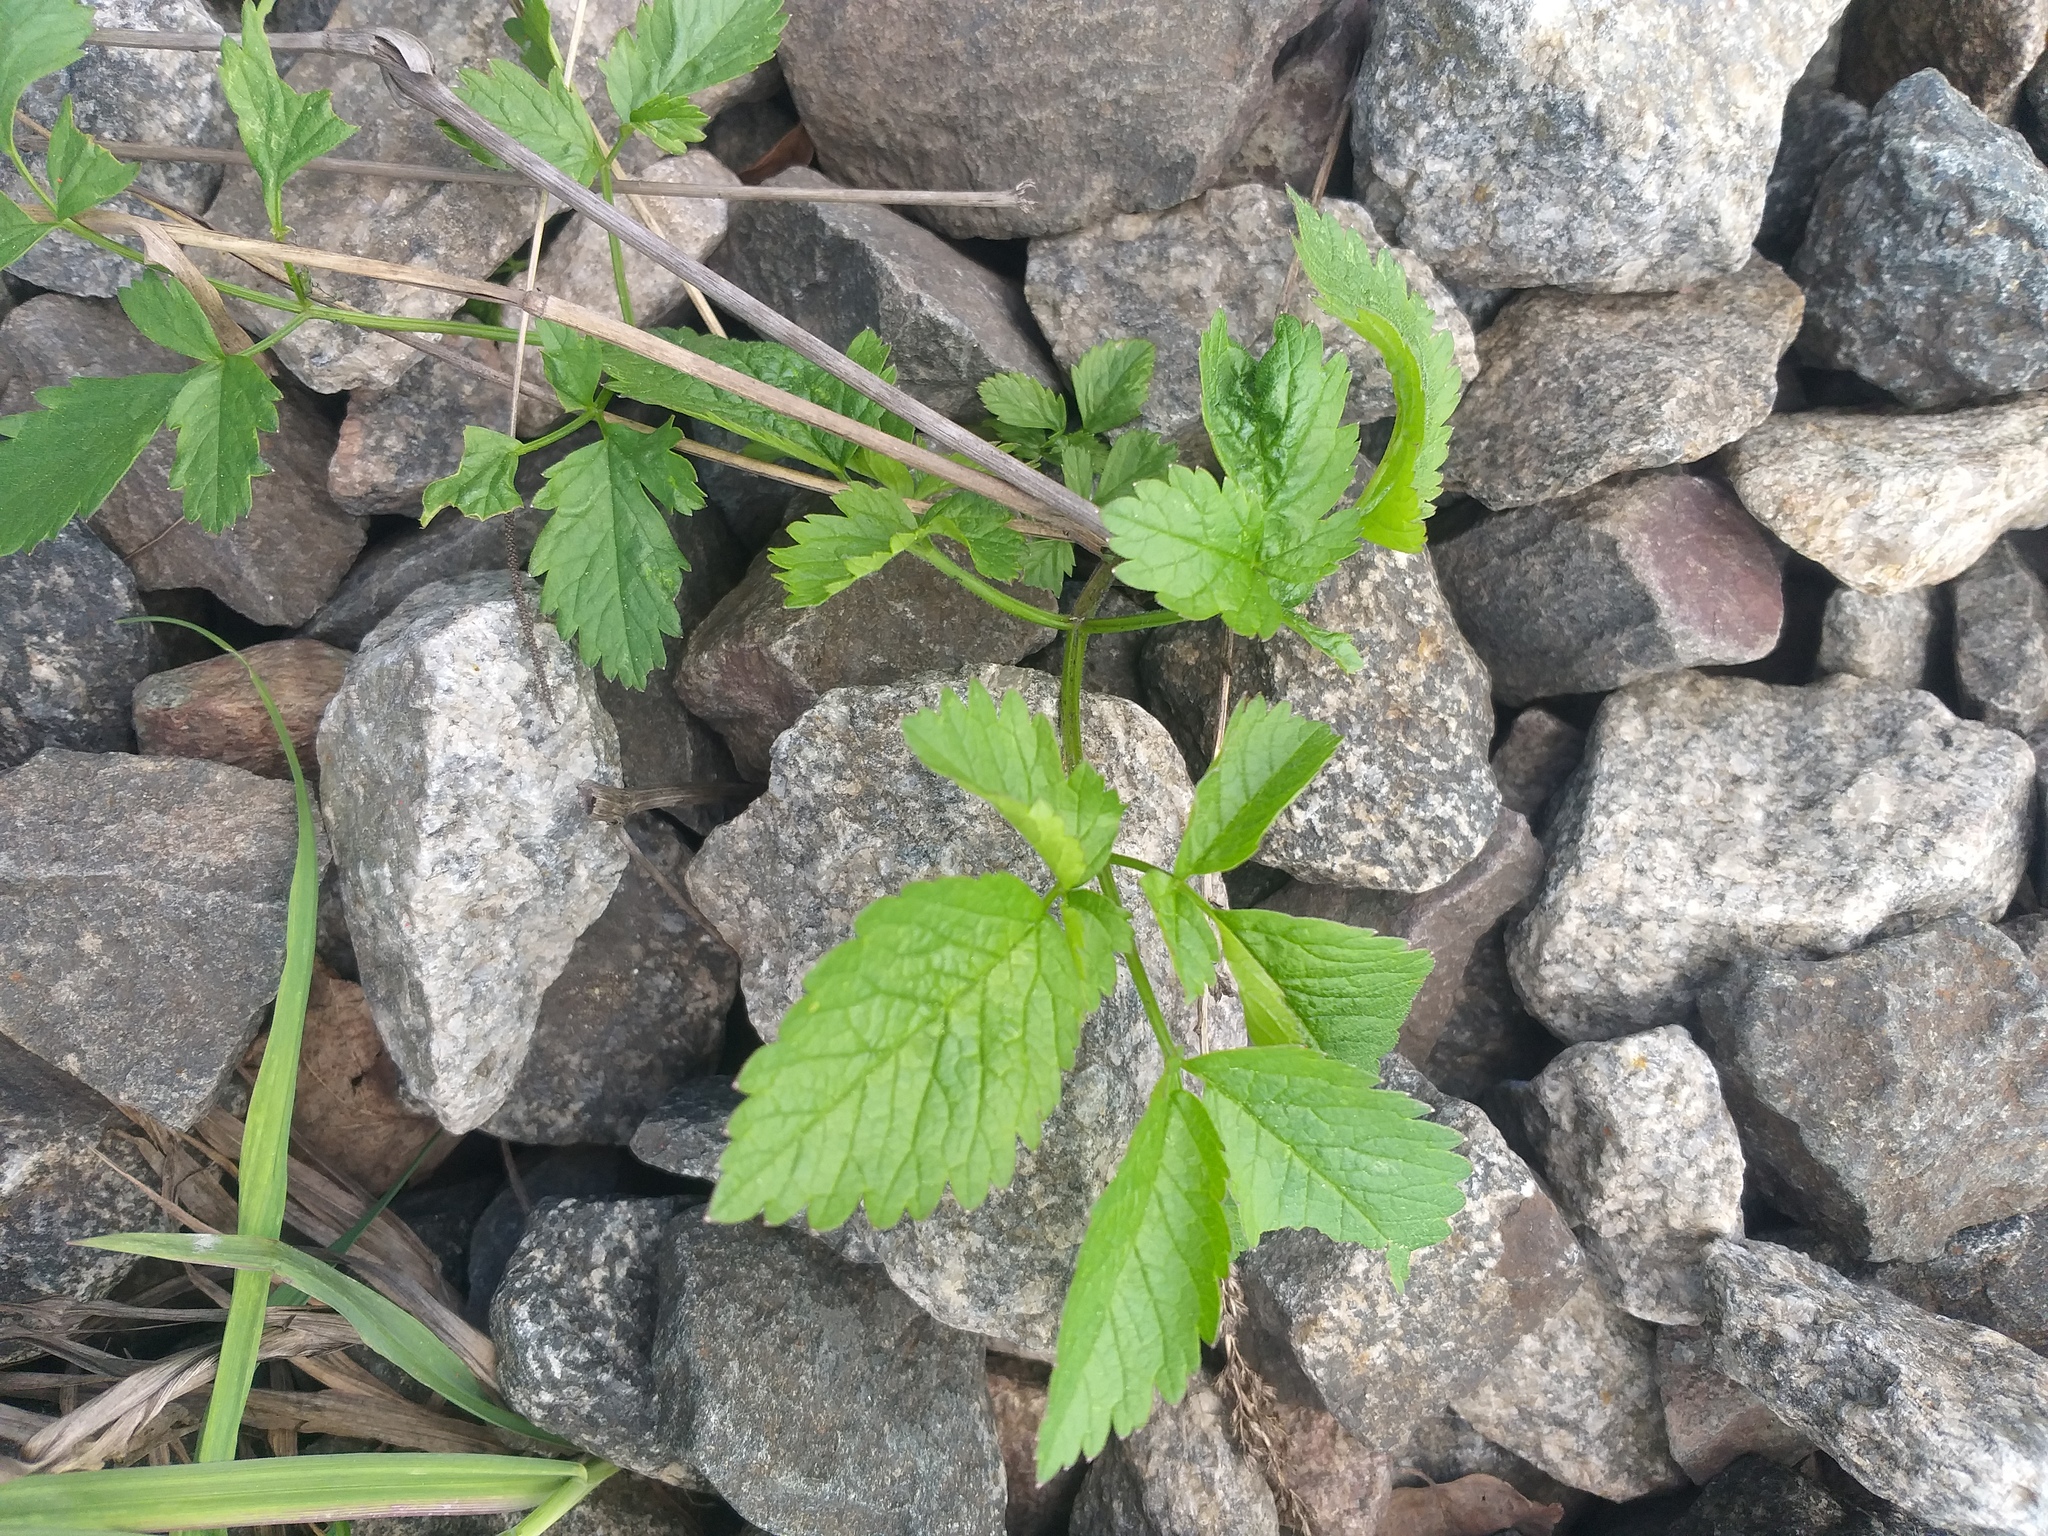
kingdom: Plantae
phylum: Tracheophyta
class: Magnoliopsida
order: Apiales
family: Apiaceae
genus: Chaerophyllum
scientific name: Chaerophyllum aromaticum
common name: Broadleaf chervil
